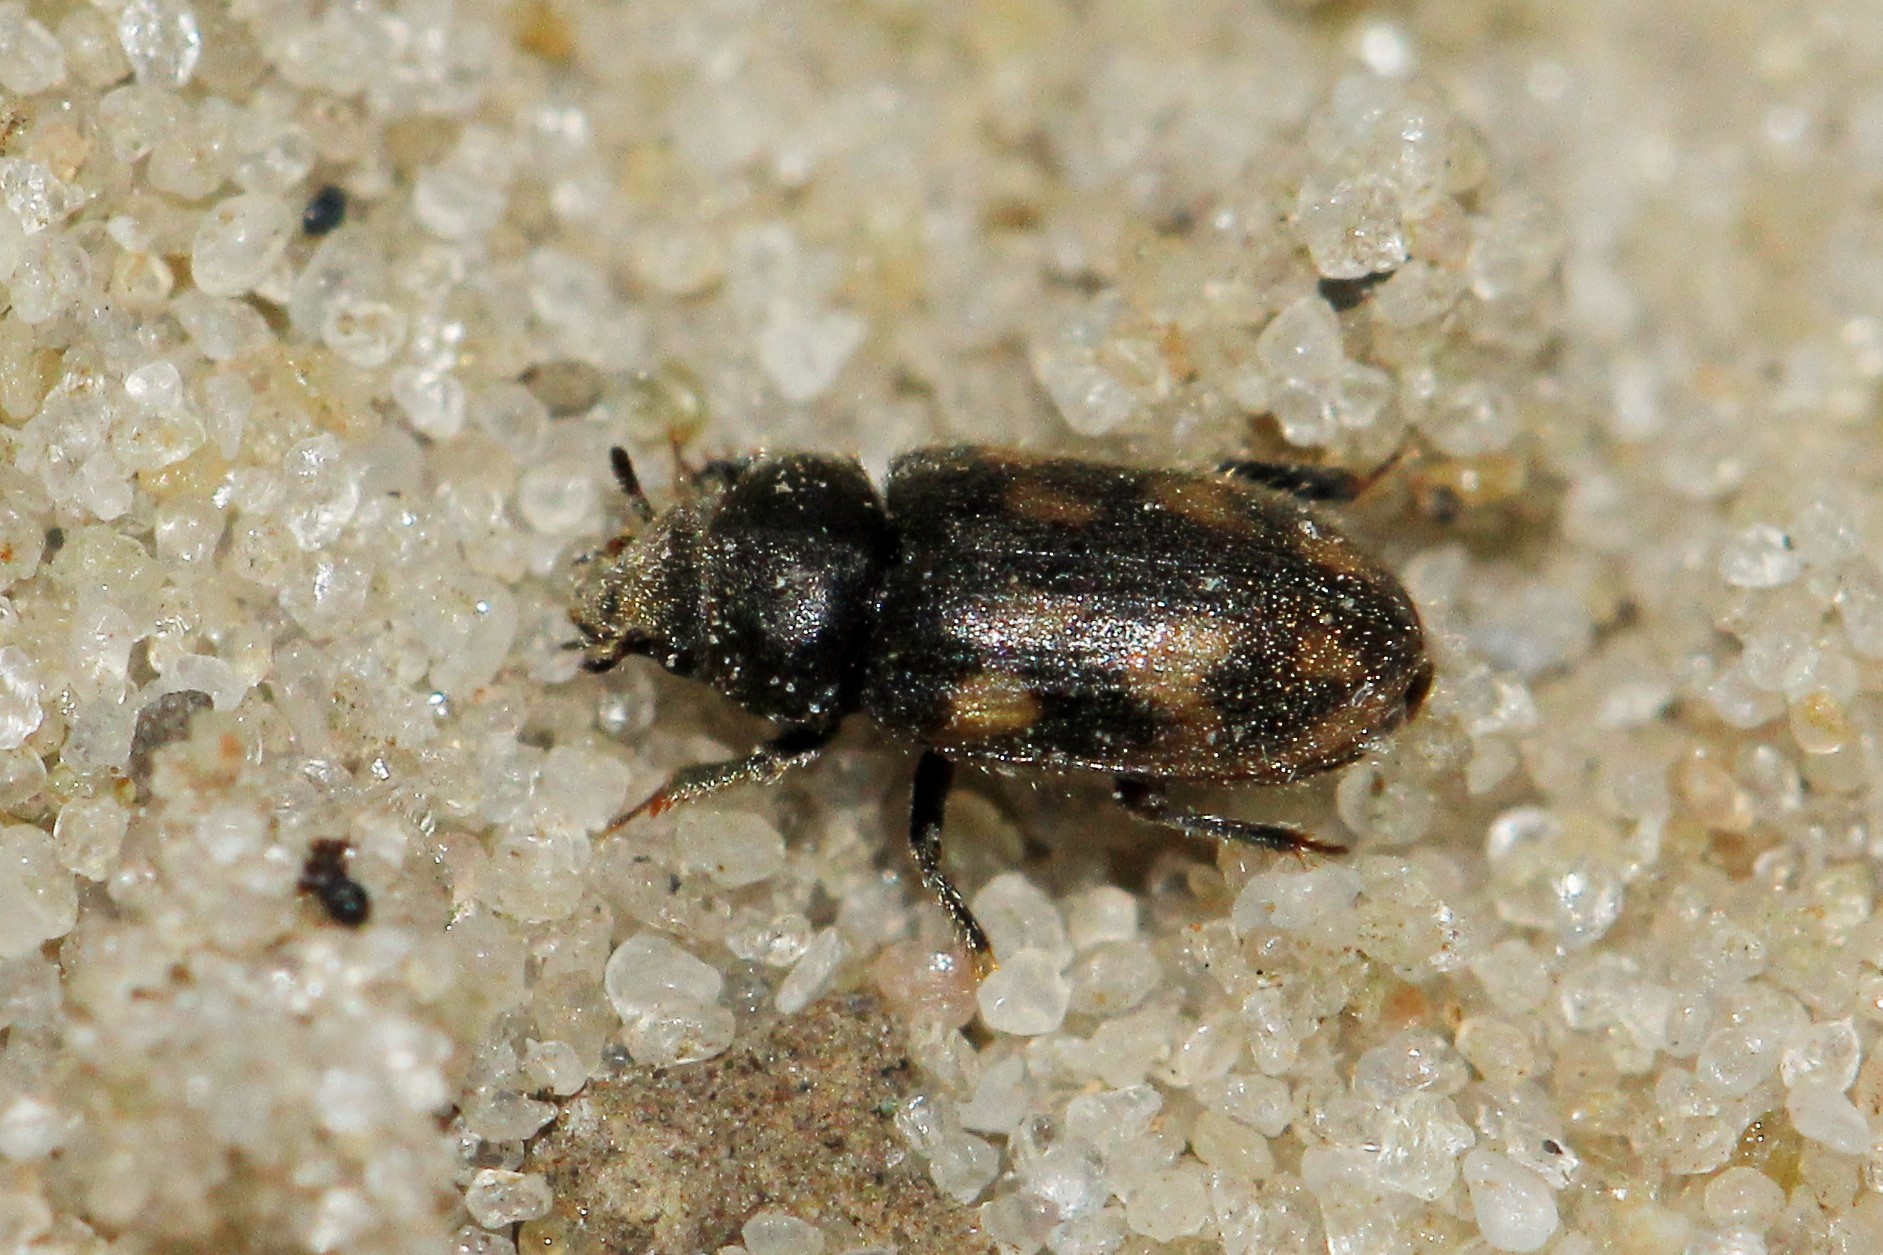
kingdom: Animalia
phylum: Arthropoda
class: Insecta
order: Coleoptera
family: Heteroceridae
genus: Augyles
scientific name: Augyles hispidulus
